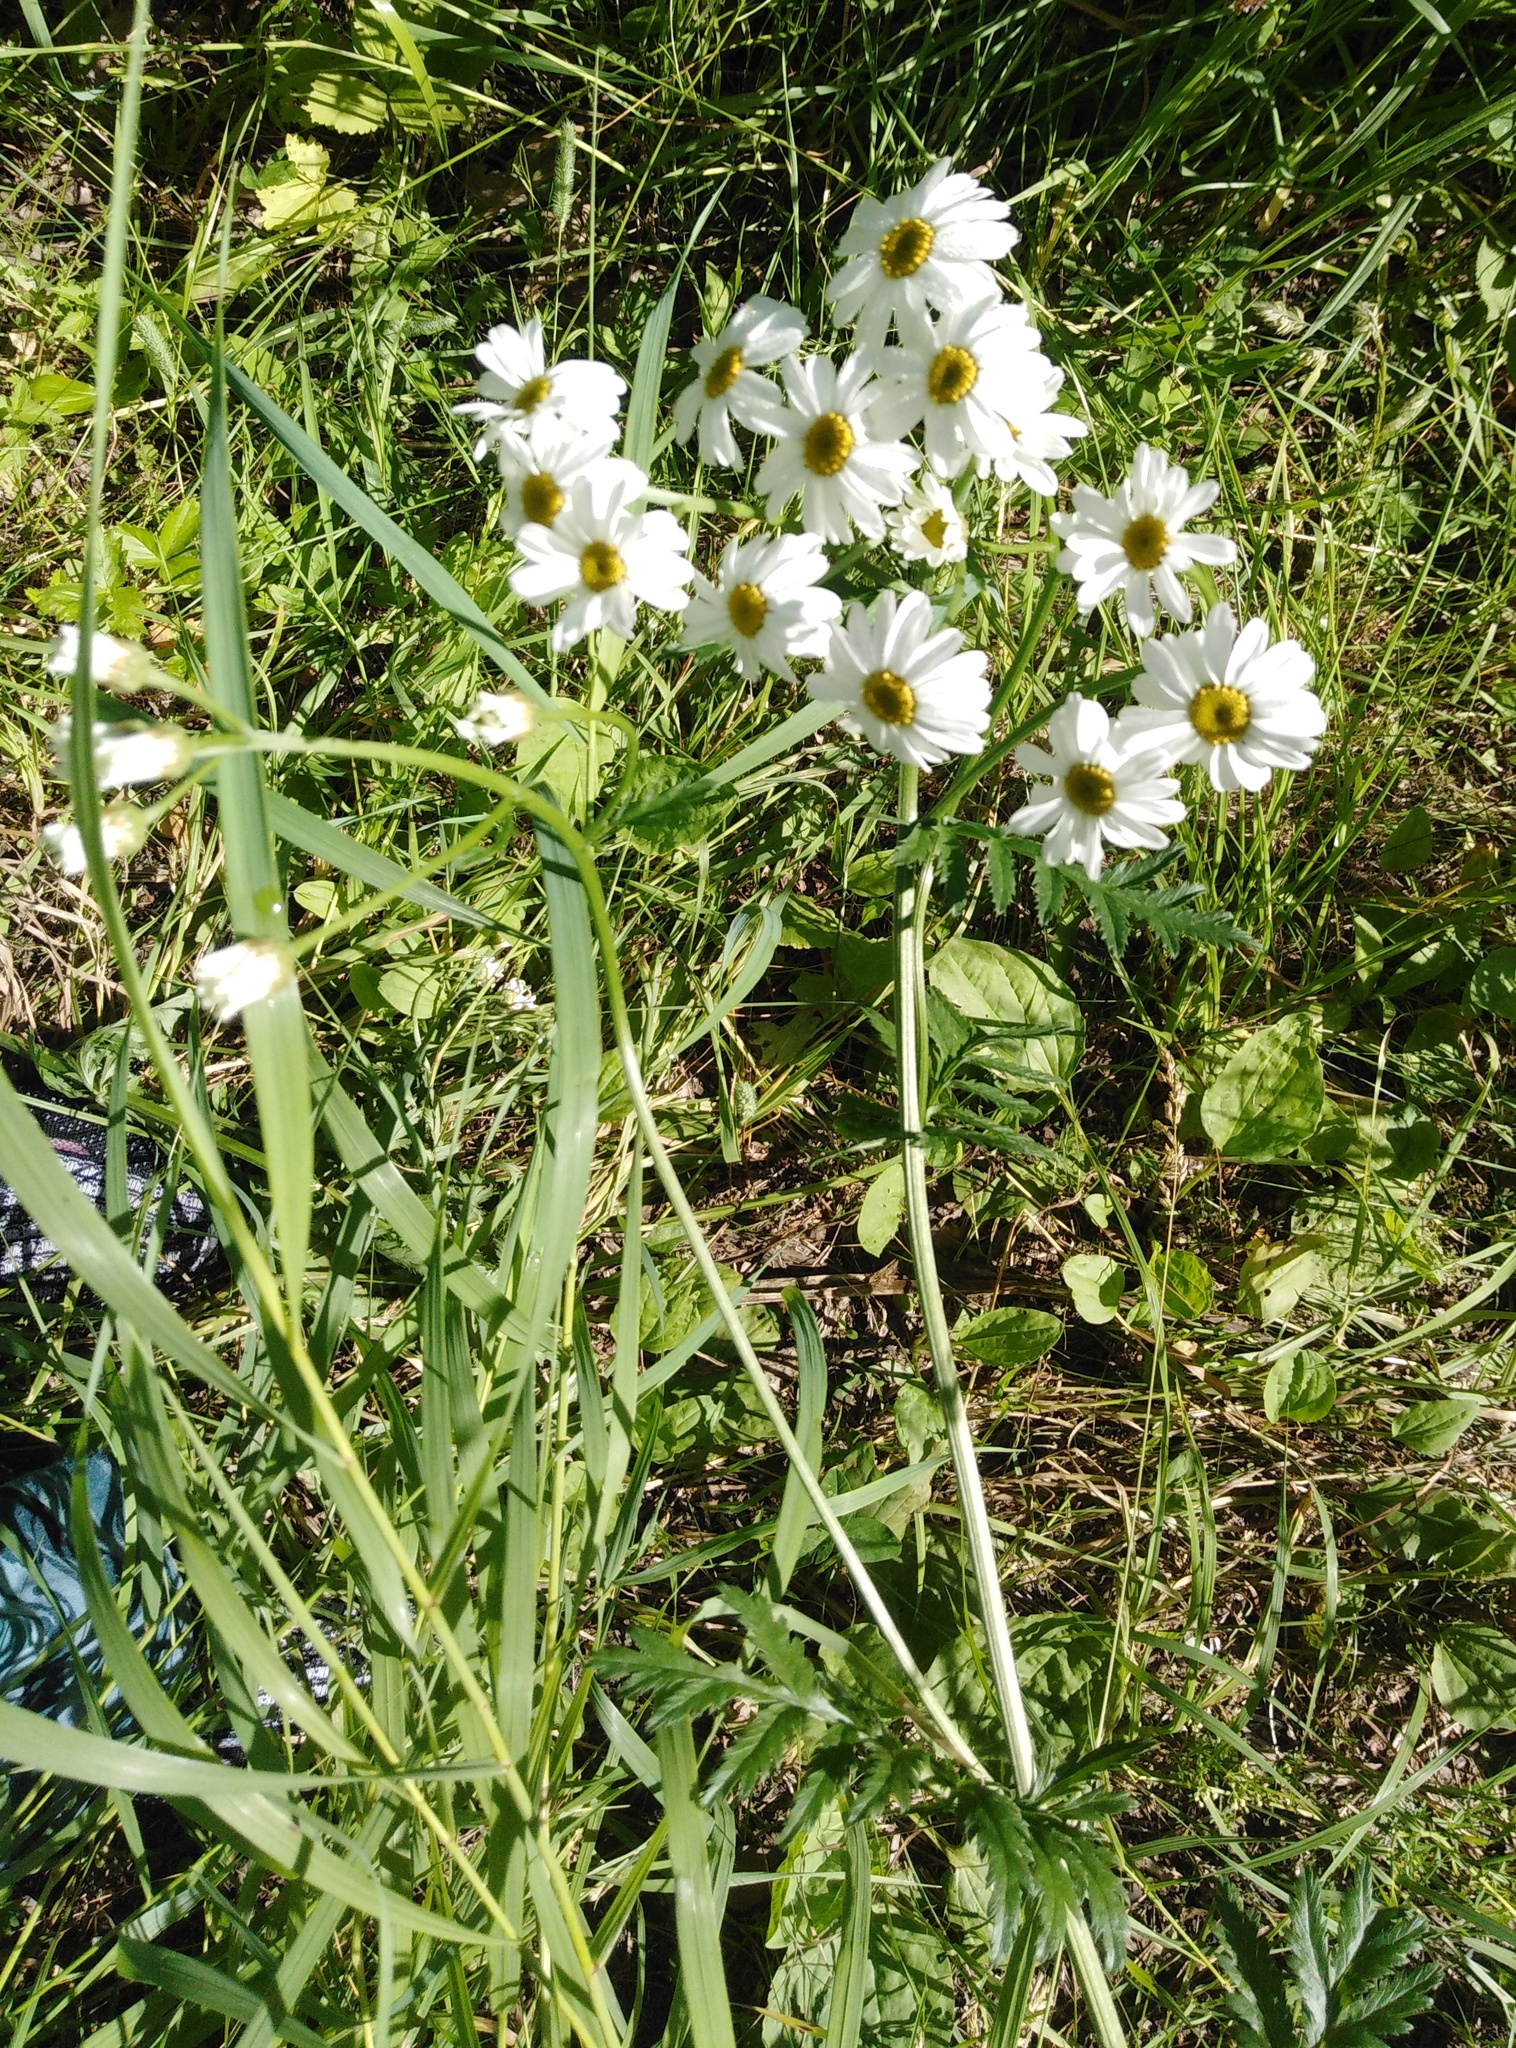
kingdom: Plantae
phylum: Tracheophyta
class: Magnoliopsida
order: Asterales
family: Asteraceae
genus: Tanacetum
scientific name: Tanacetum corymbosum
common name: Scentless feverfew
